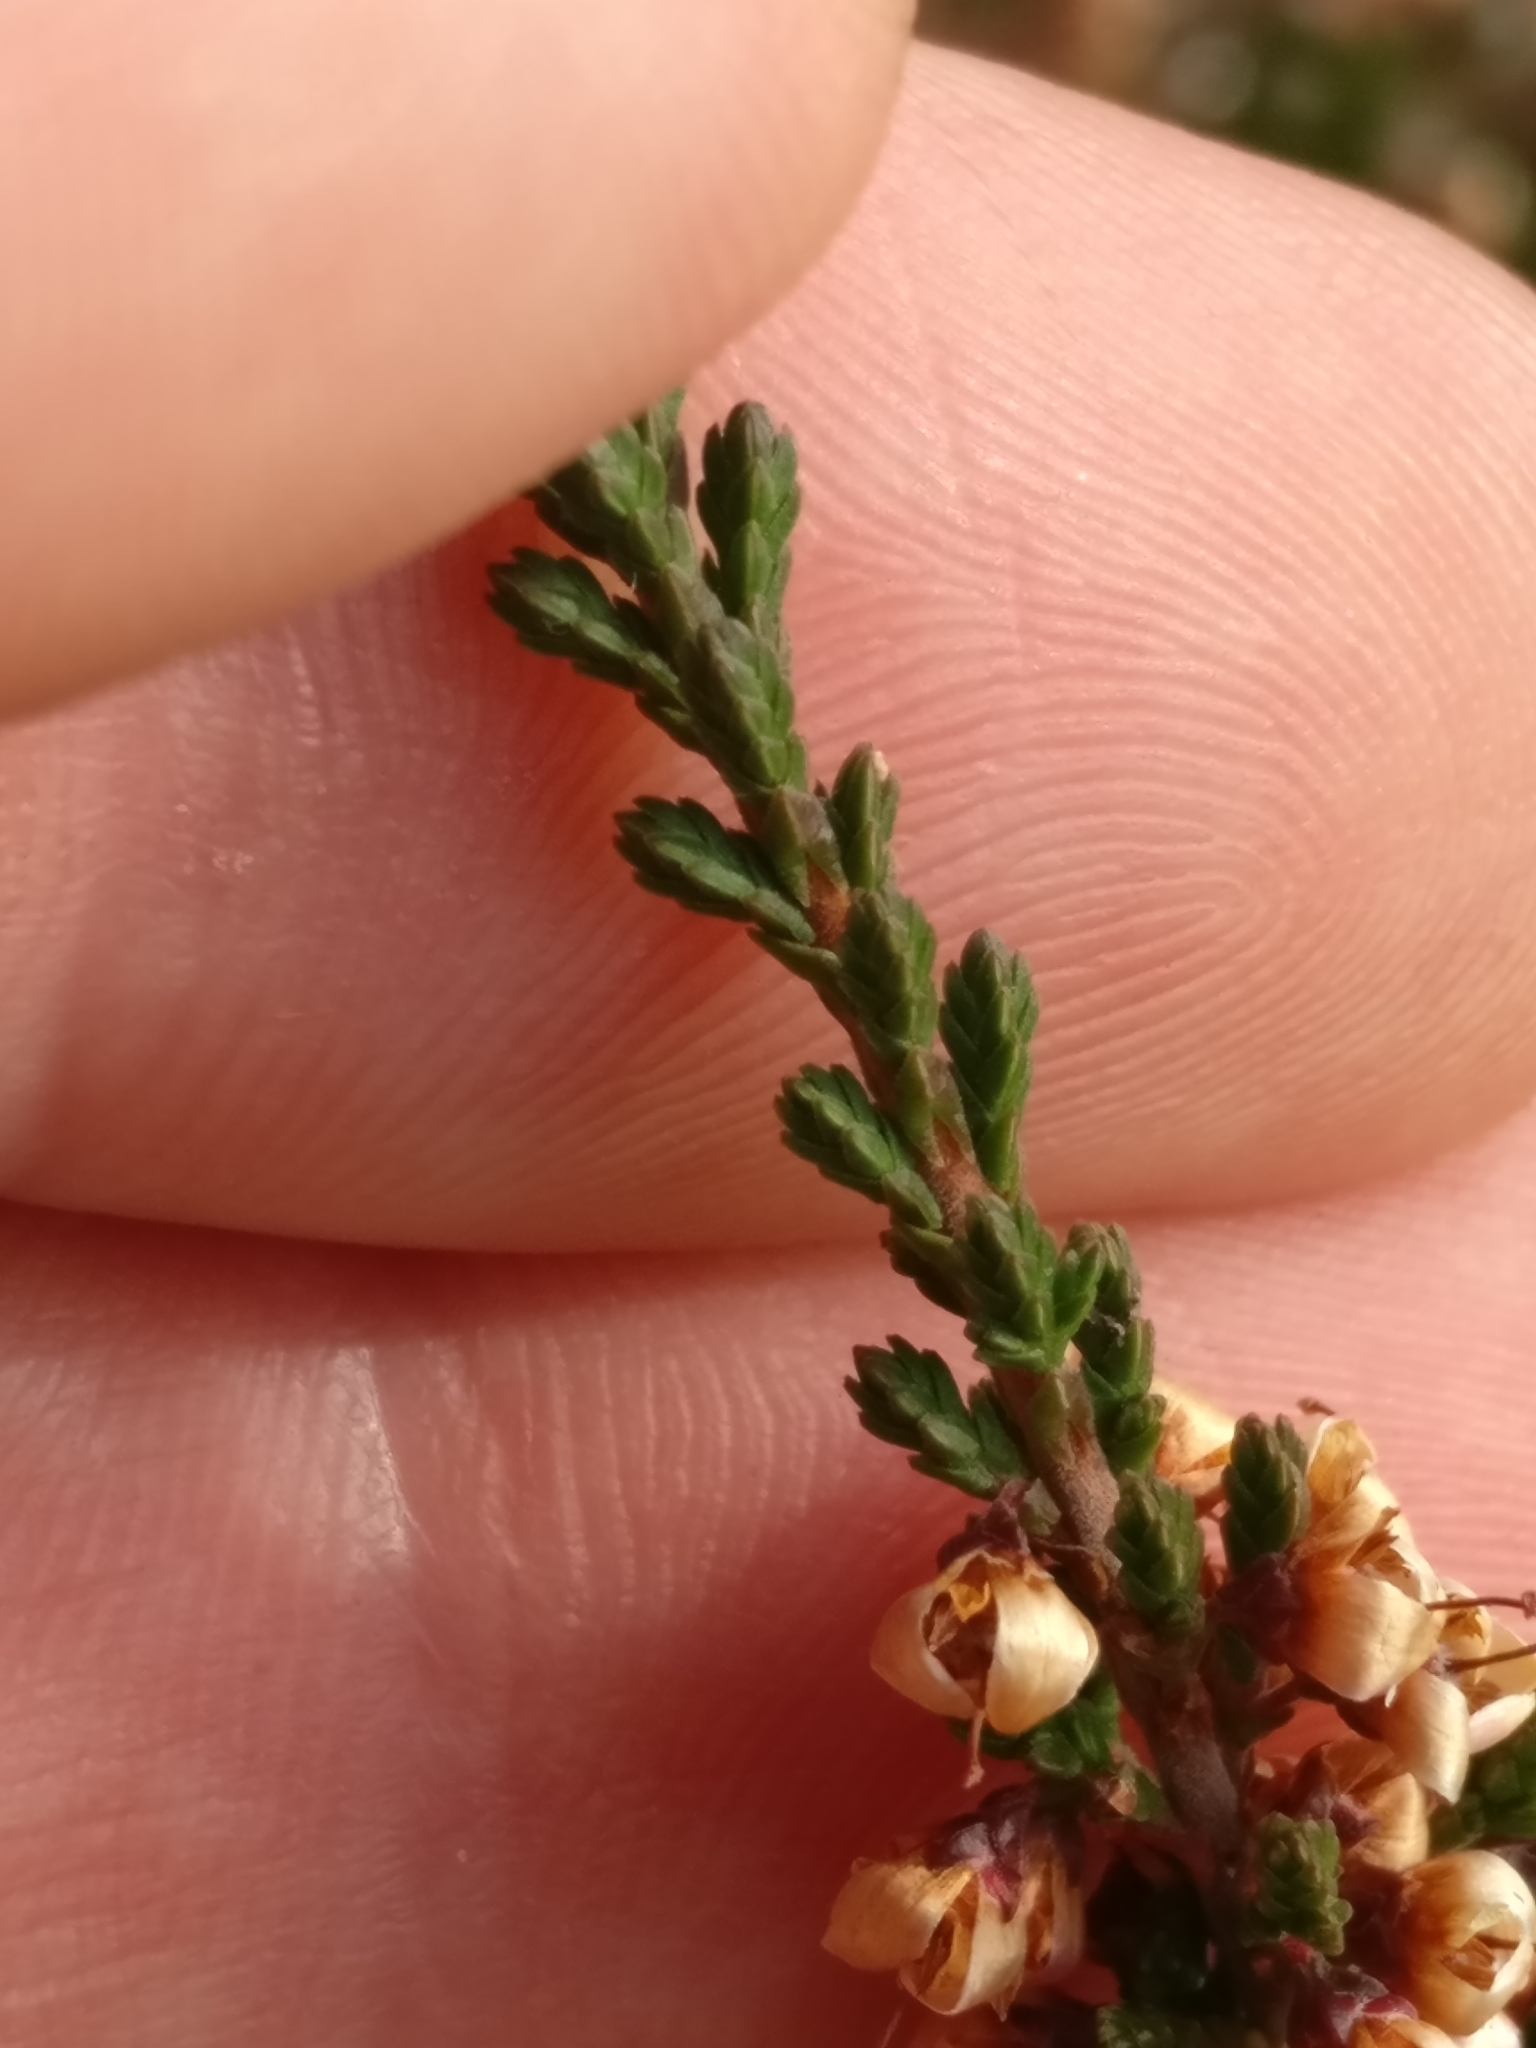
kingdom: Plantae
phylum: Tracheophyta
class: Magnoliopsida
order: Ericales
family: Ericaceae
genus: Calluna
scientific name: Calluna vulgaris
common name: Heather
